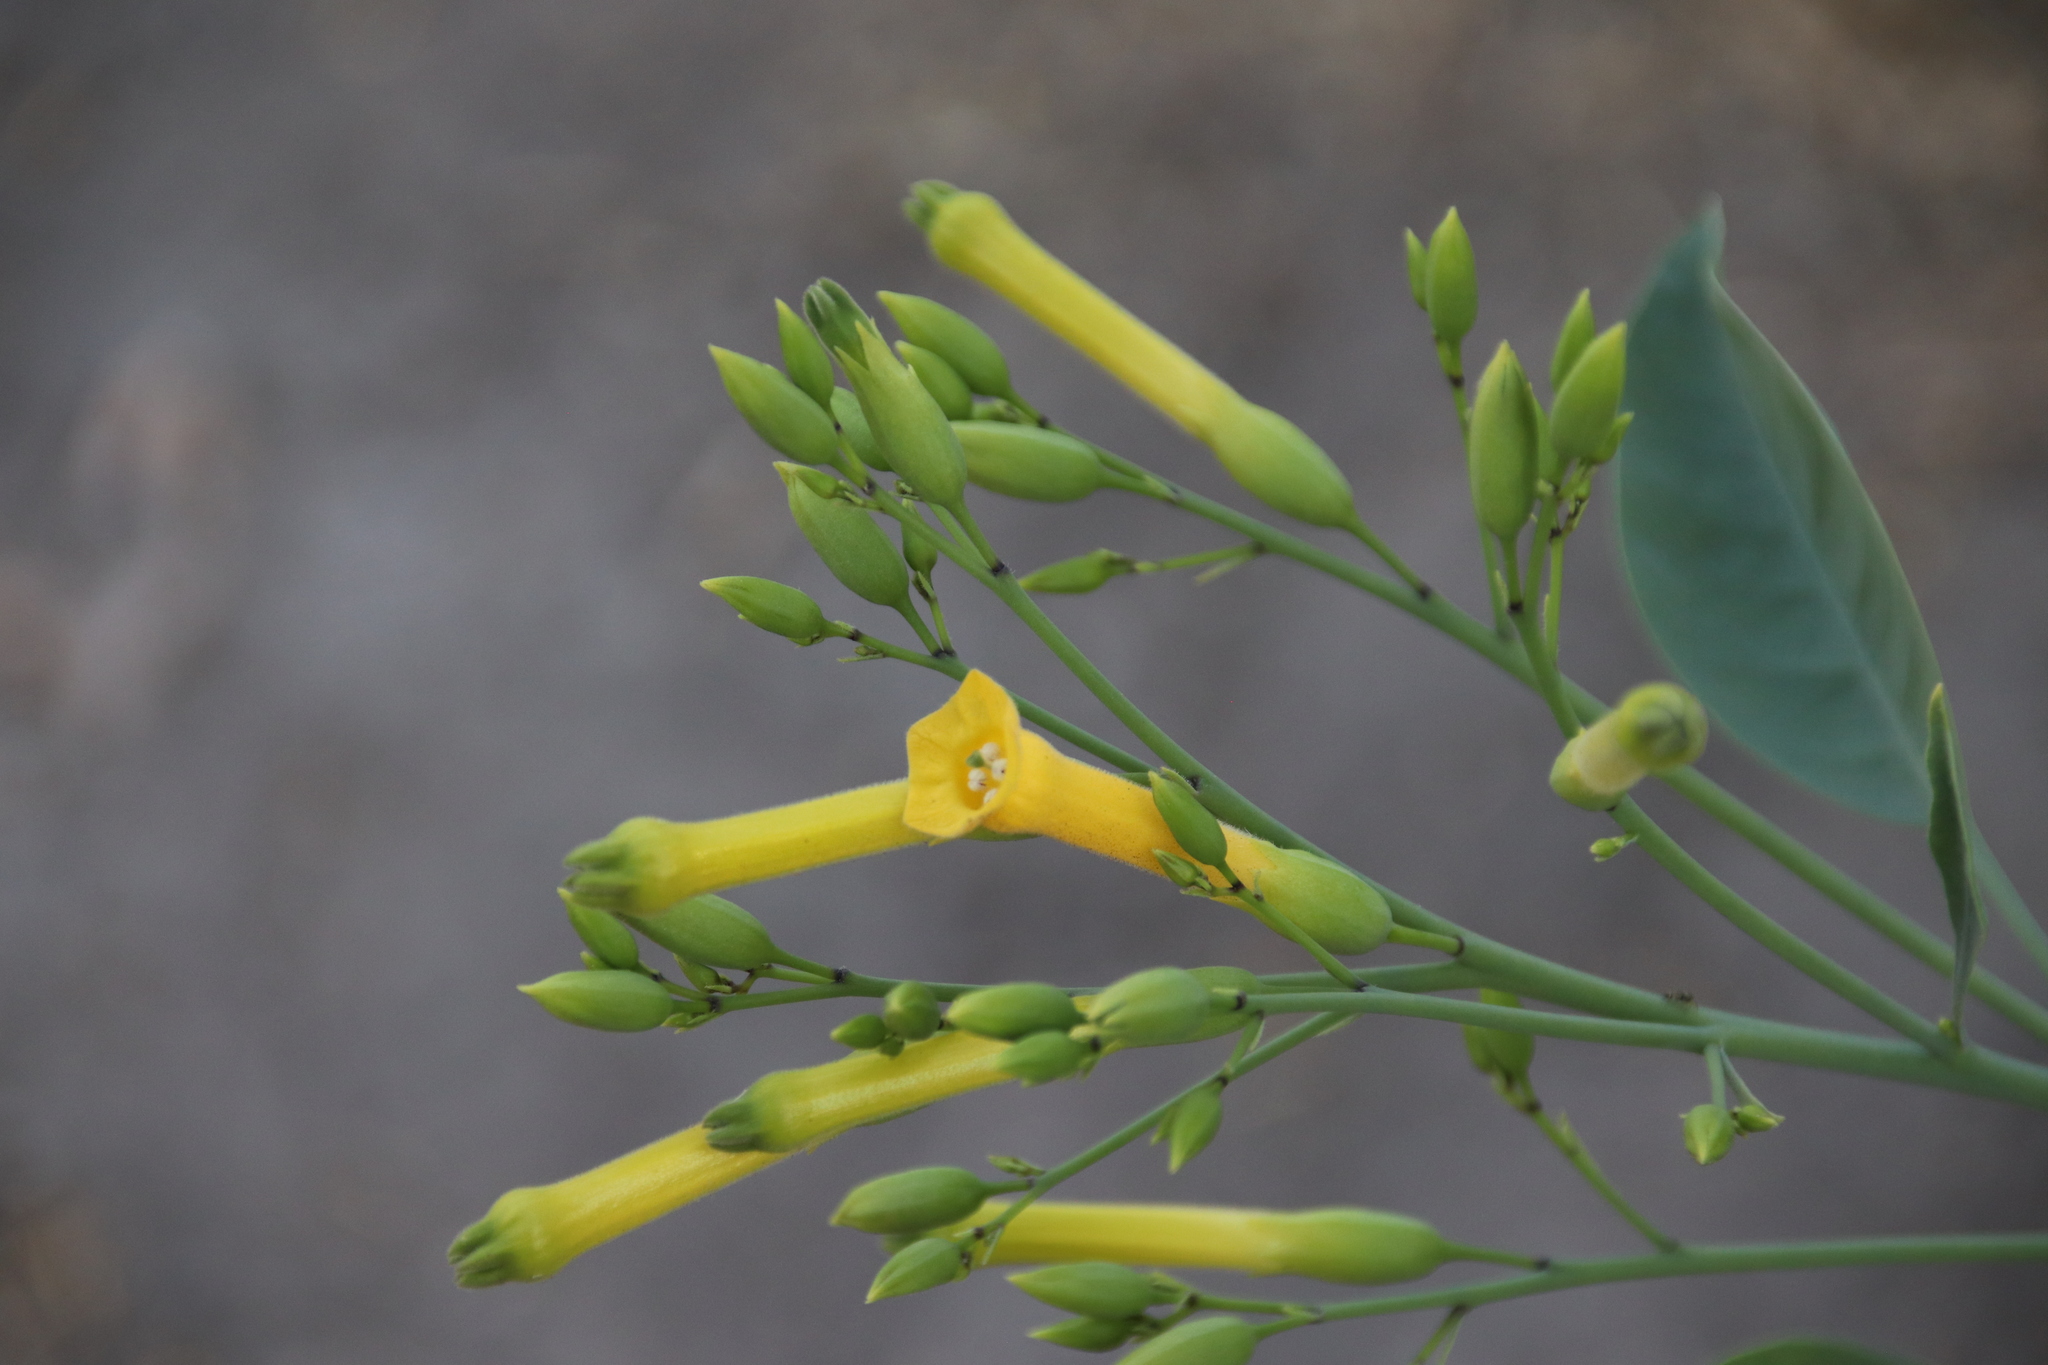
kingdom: Plantae
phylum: Tracheophyta
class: Magnoliopsida
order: Solanales
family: Solanaceae
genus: Nicotiana
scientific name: Nicotiana glauca
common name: Tree tobacco
